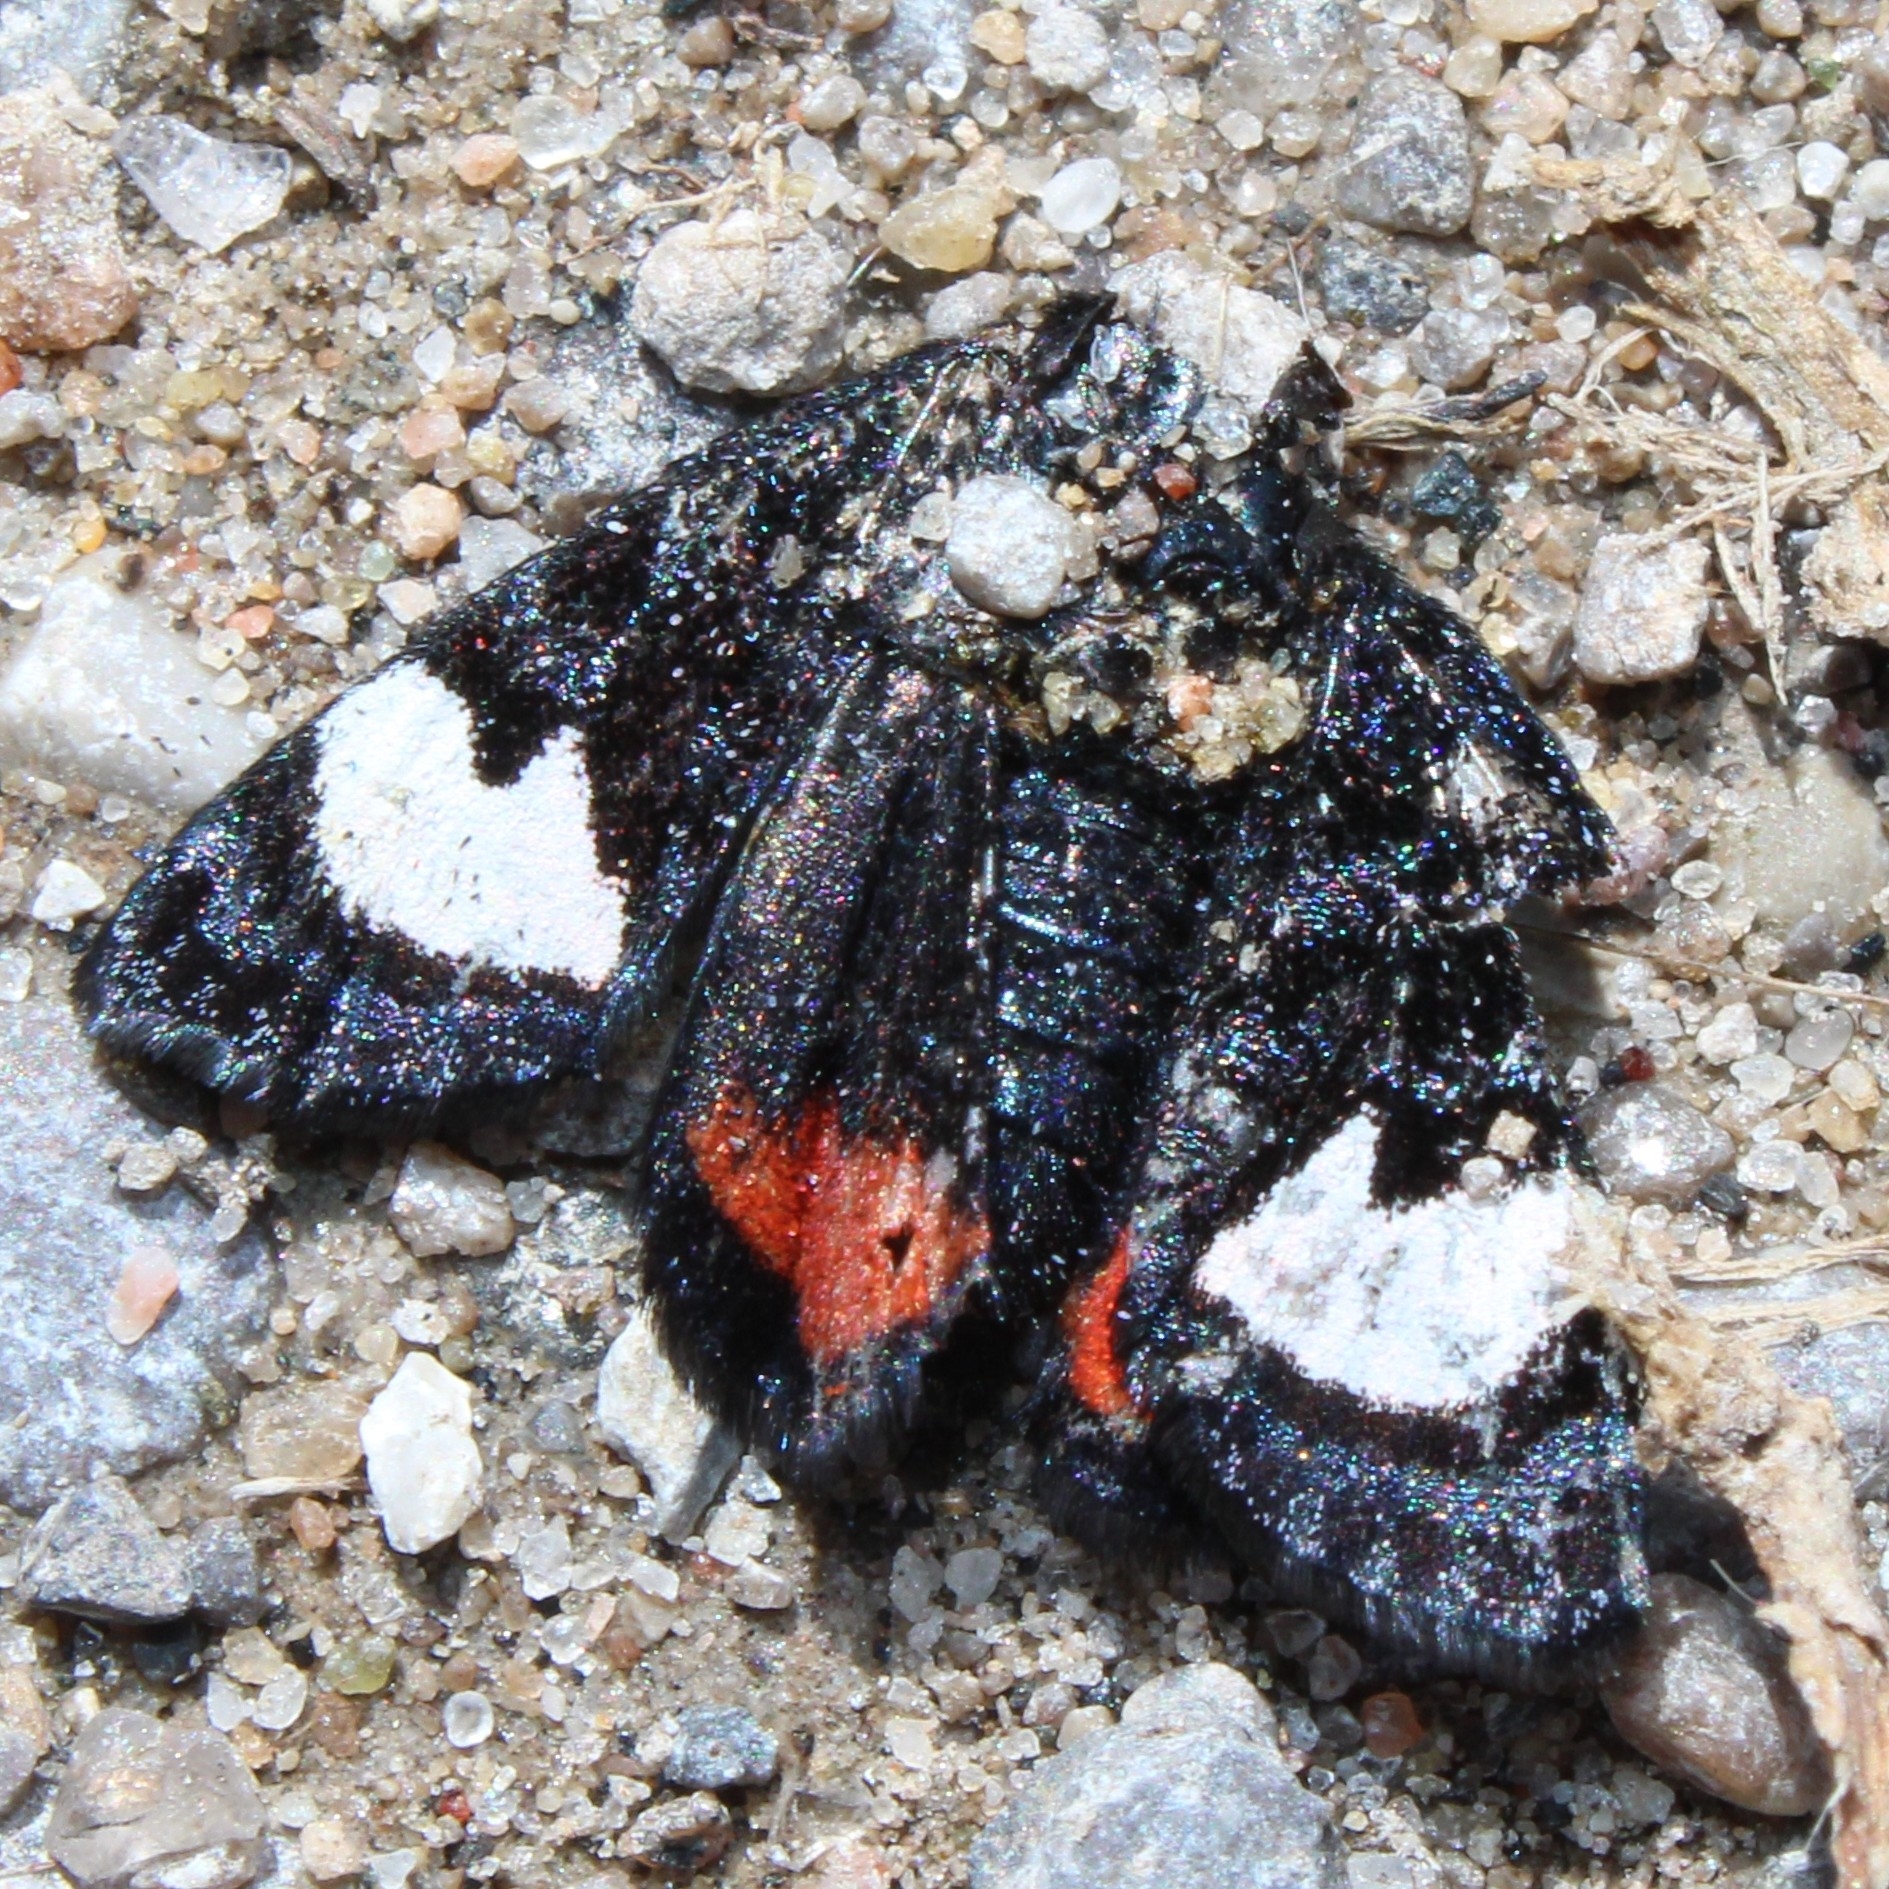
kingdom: Animalia
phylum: Arthropoda
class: Insecta
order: Lepidoptera
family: Noctuidae
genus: Psychomorpha
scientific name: Psychomorpha epimenis
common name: Grapevine epimenis moth
